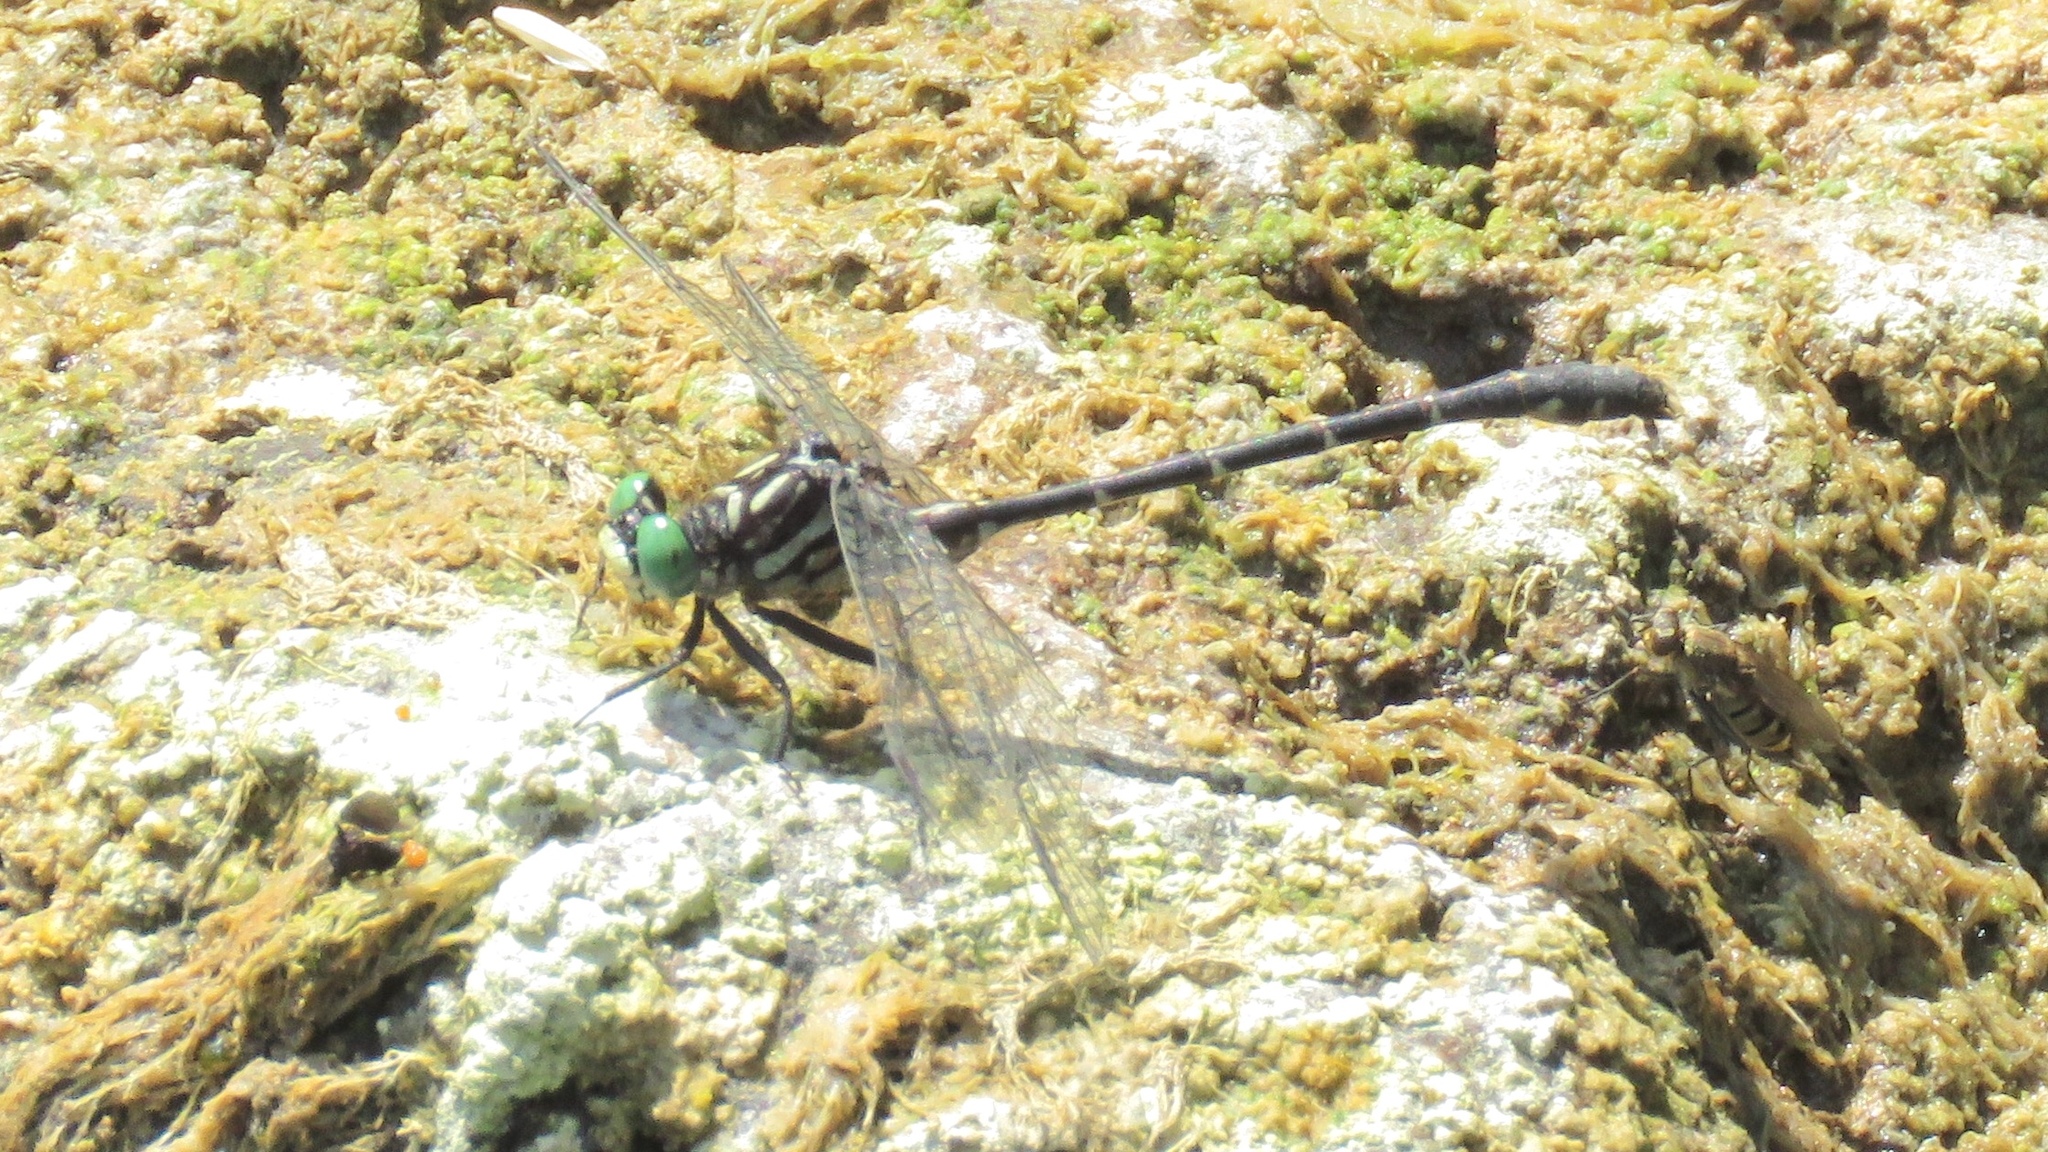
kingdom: Animalia
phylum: Arthropoda
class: Insecta
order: Odonata
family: Gomphidae
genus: Stylogomphus
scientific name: Stylogomphus albistylus
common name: Eastern least clubtail
